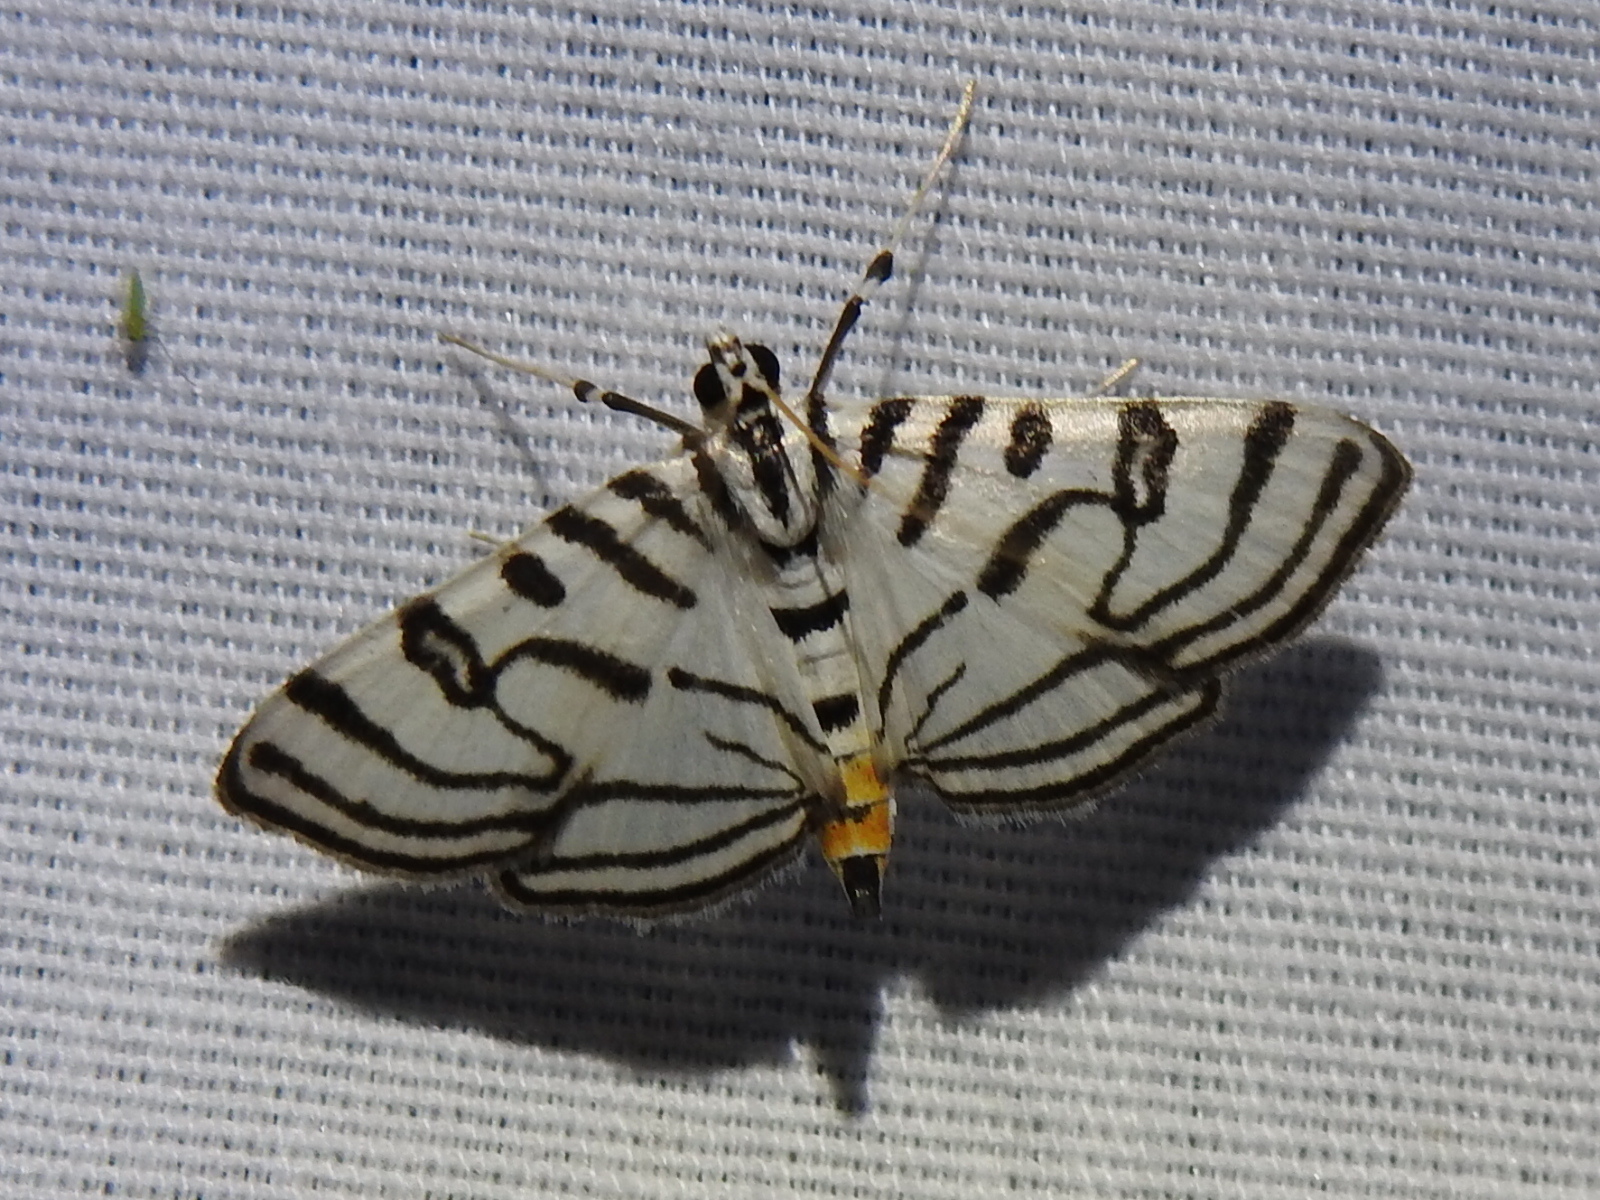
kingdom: Animalia
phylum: Arthropoda
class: Insecta
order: Lepidoptera
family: Crambidae
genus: Conchylodes
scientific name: Conchylodes ovulalis
